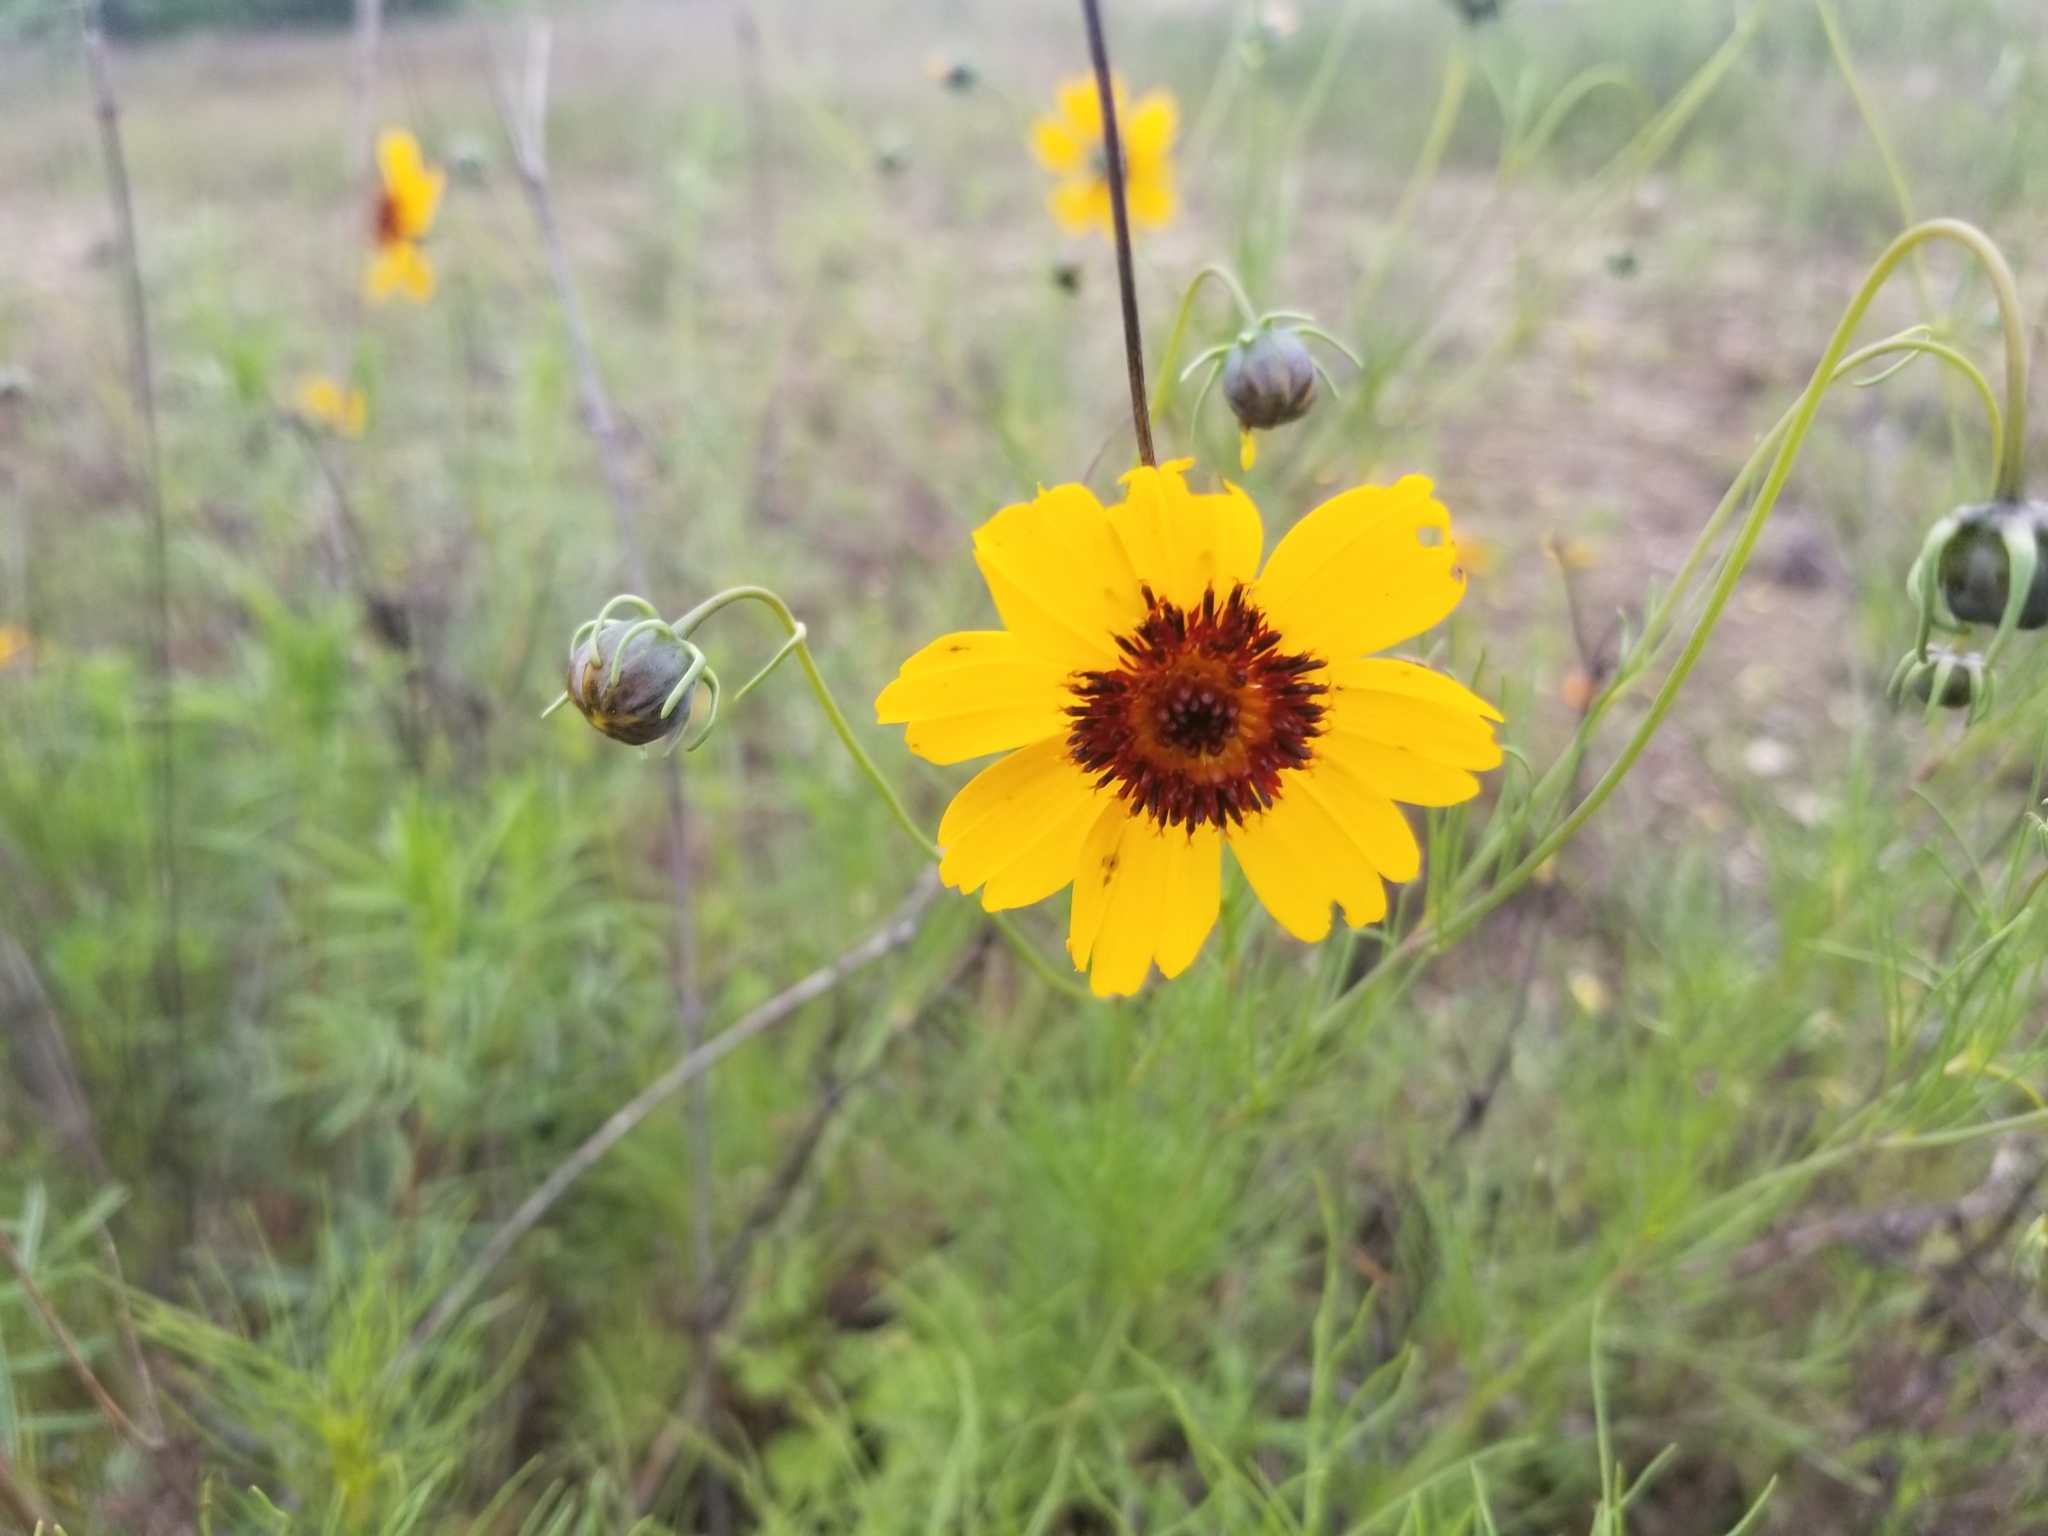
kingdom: Plantae
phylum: Tracheophyta
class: Magnoliopsida
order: Asterales
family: Asteraceae
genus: Thelesperma
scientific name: Thelesperma filifolium
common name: Stiff greenthread
